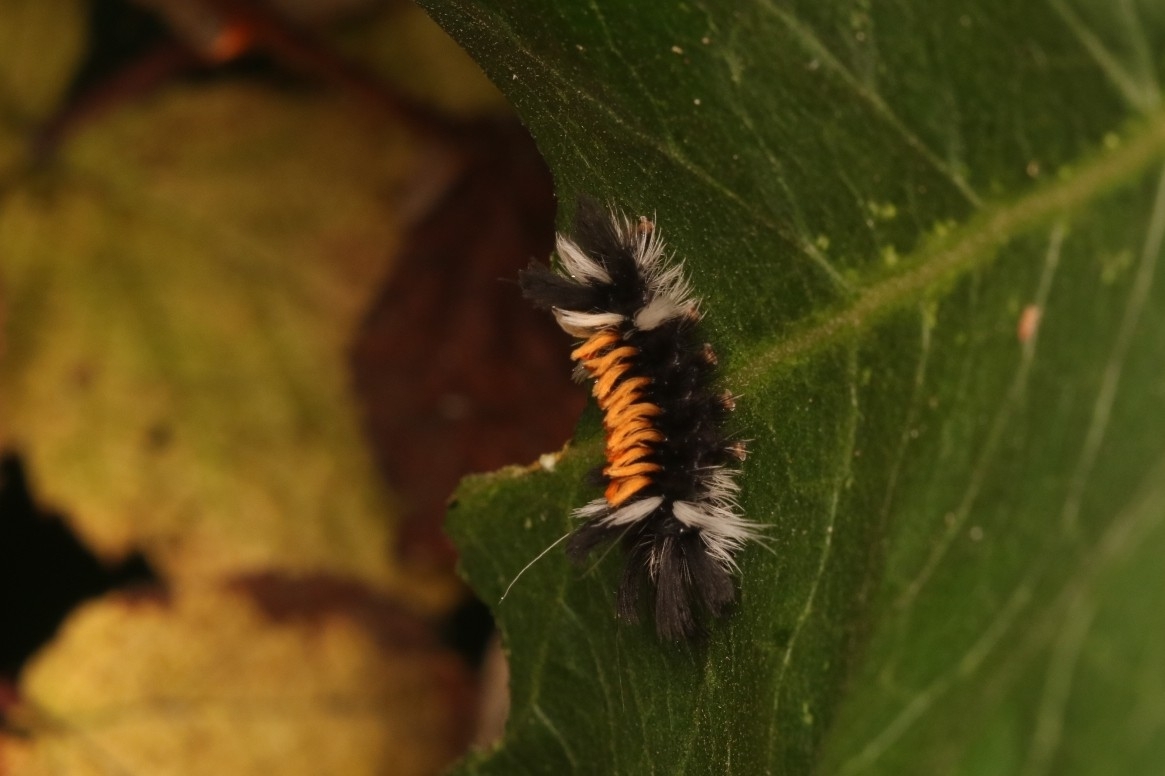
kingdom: Animalia
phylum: Arthropoda
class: Insecta
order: Lepidoptera
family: Erebidae
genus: Euchaetes
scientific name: Euchaetes egle
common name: Milkweed tussock moth
